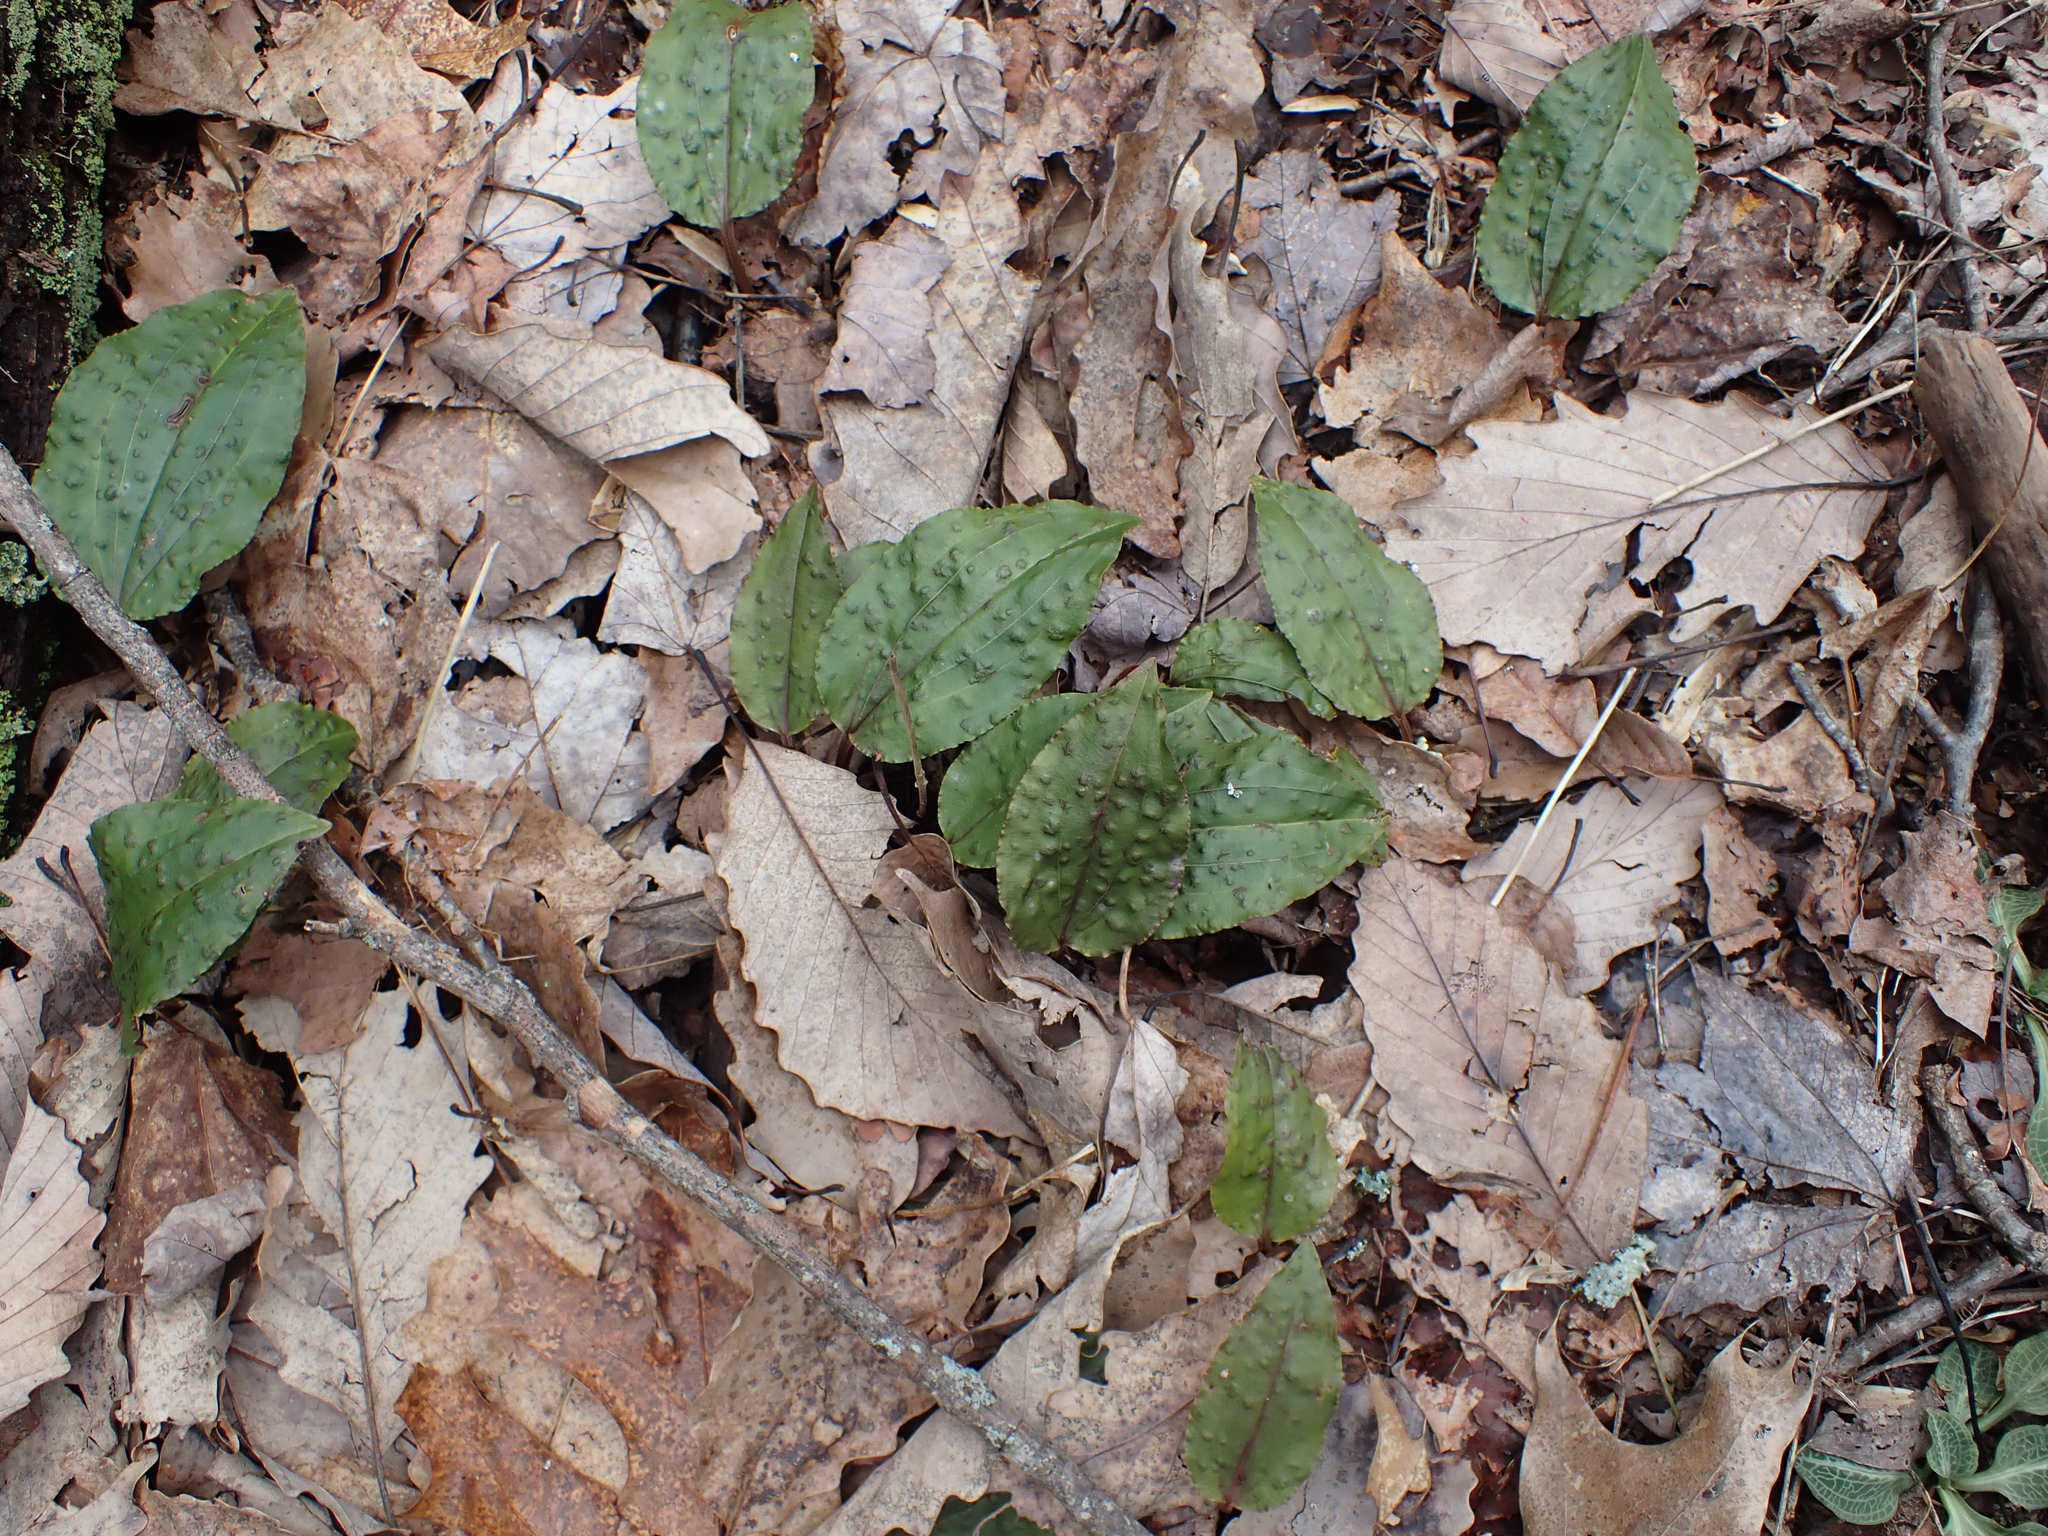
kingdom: Plantae
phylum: Tracheophyta
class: Liliopsida
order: Asparagales
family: Orchidaceae
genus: Tipularia
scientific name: Tipularia discolor
